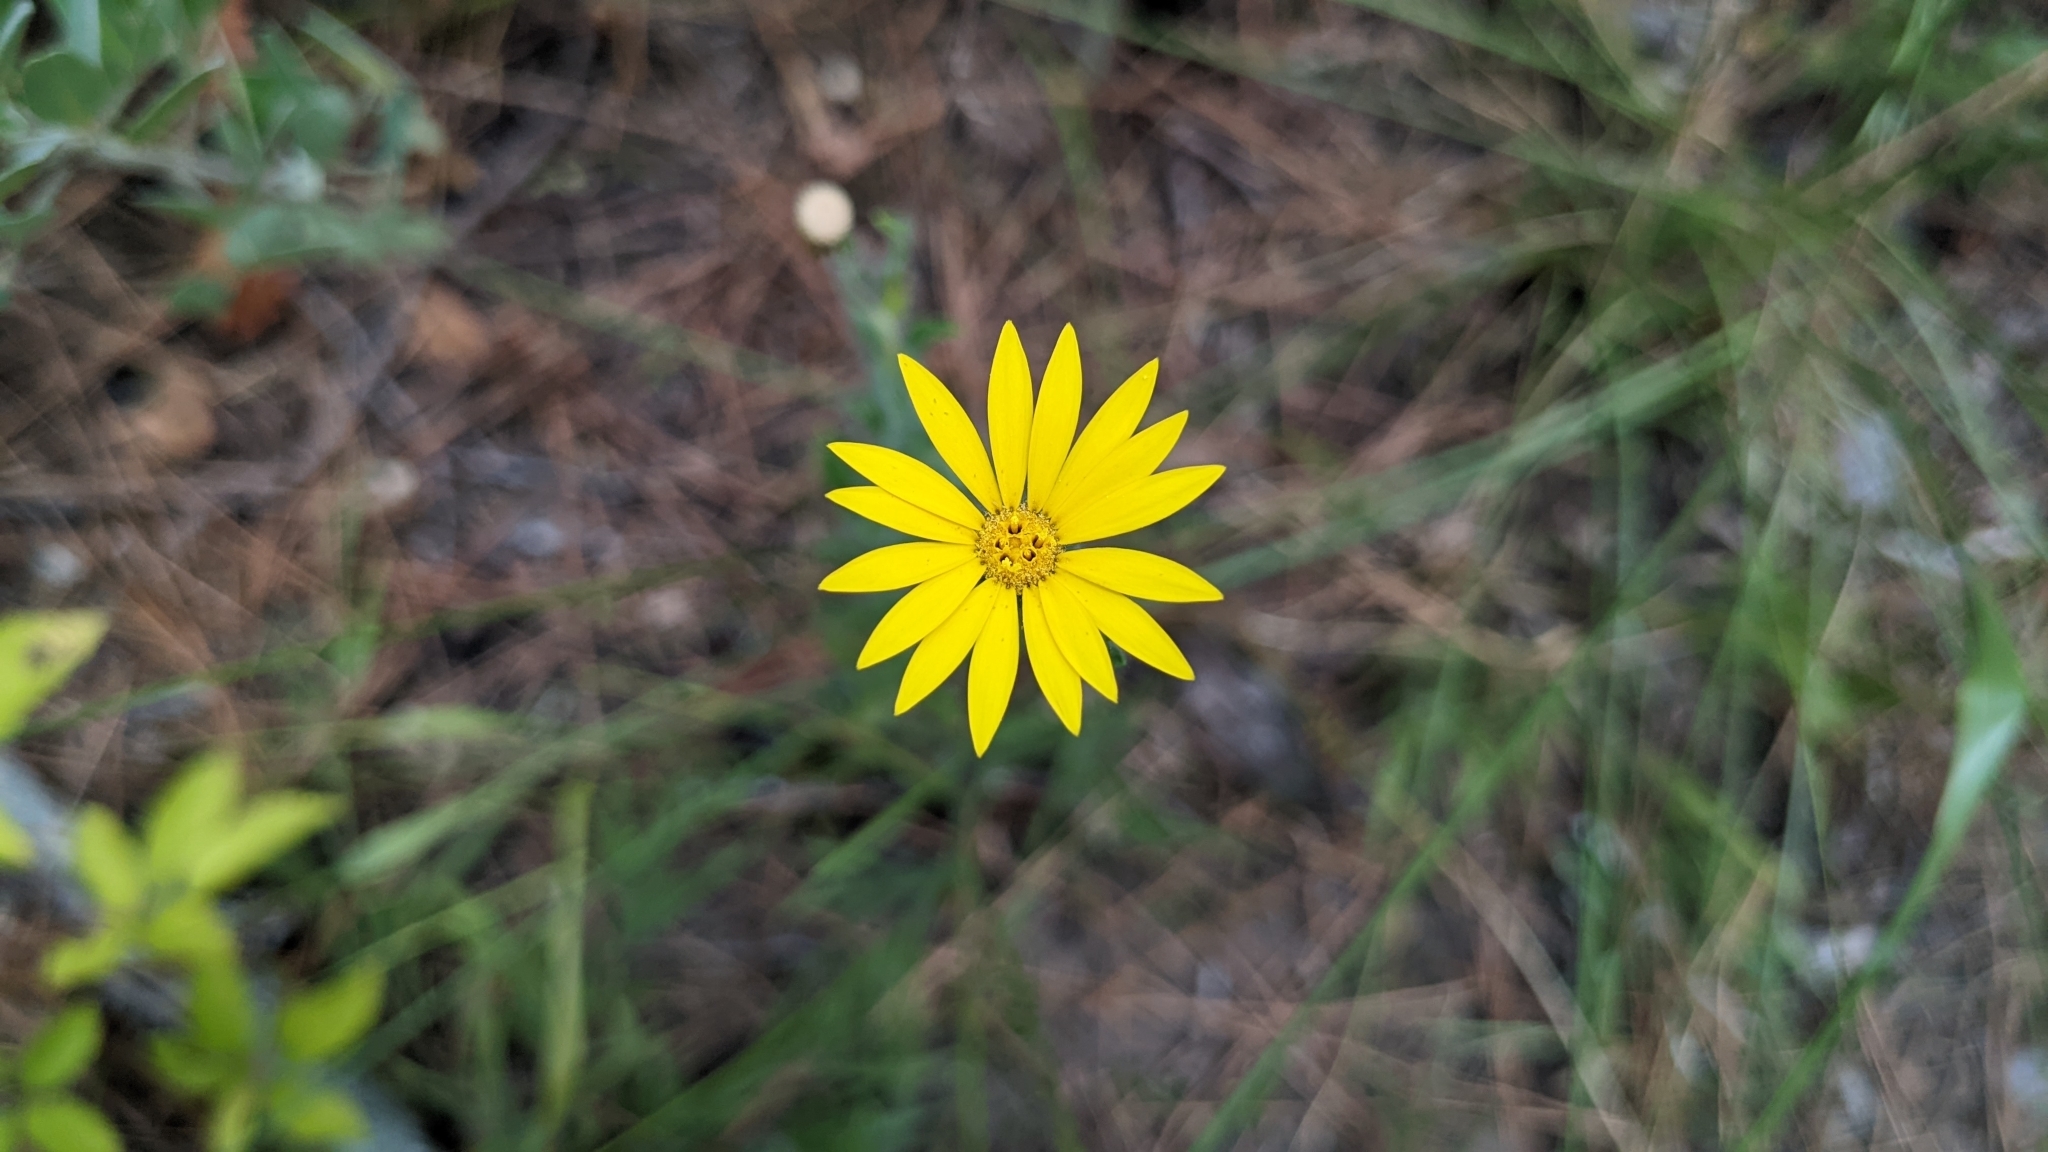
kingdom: Plantae
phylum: Tracheophyta
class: Magnoliopsida
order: Asterales
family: Asteraceae
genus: Bradburia
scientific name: Bradburia pilosa
